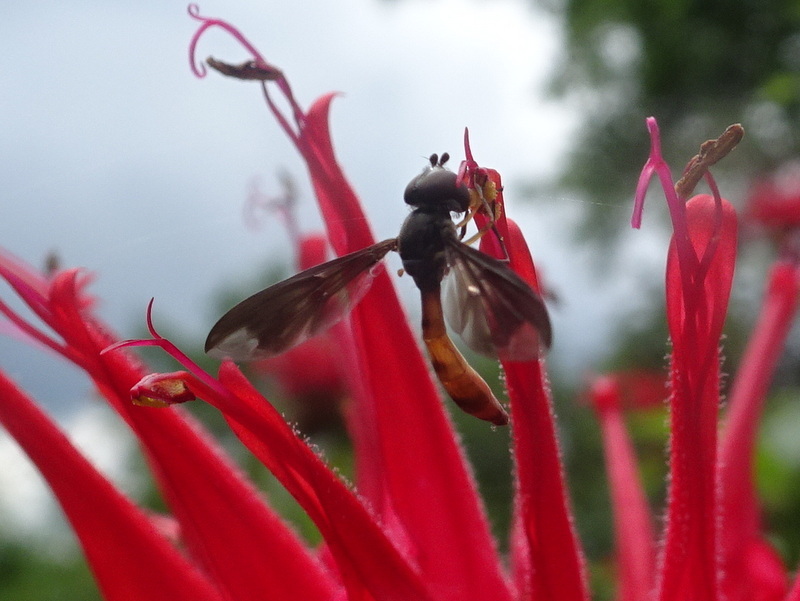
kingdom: Animalia
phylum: Arthropoda
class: Insecta
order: Diptera
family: Syrphidae
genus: Ocyptamus
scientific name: Ocyptamus fuscipennis
